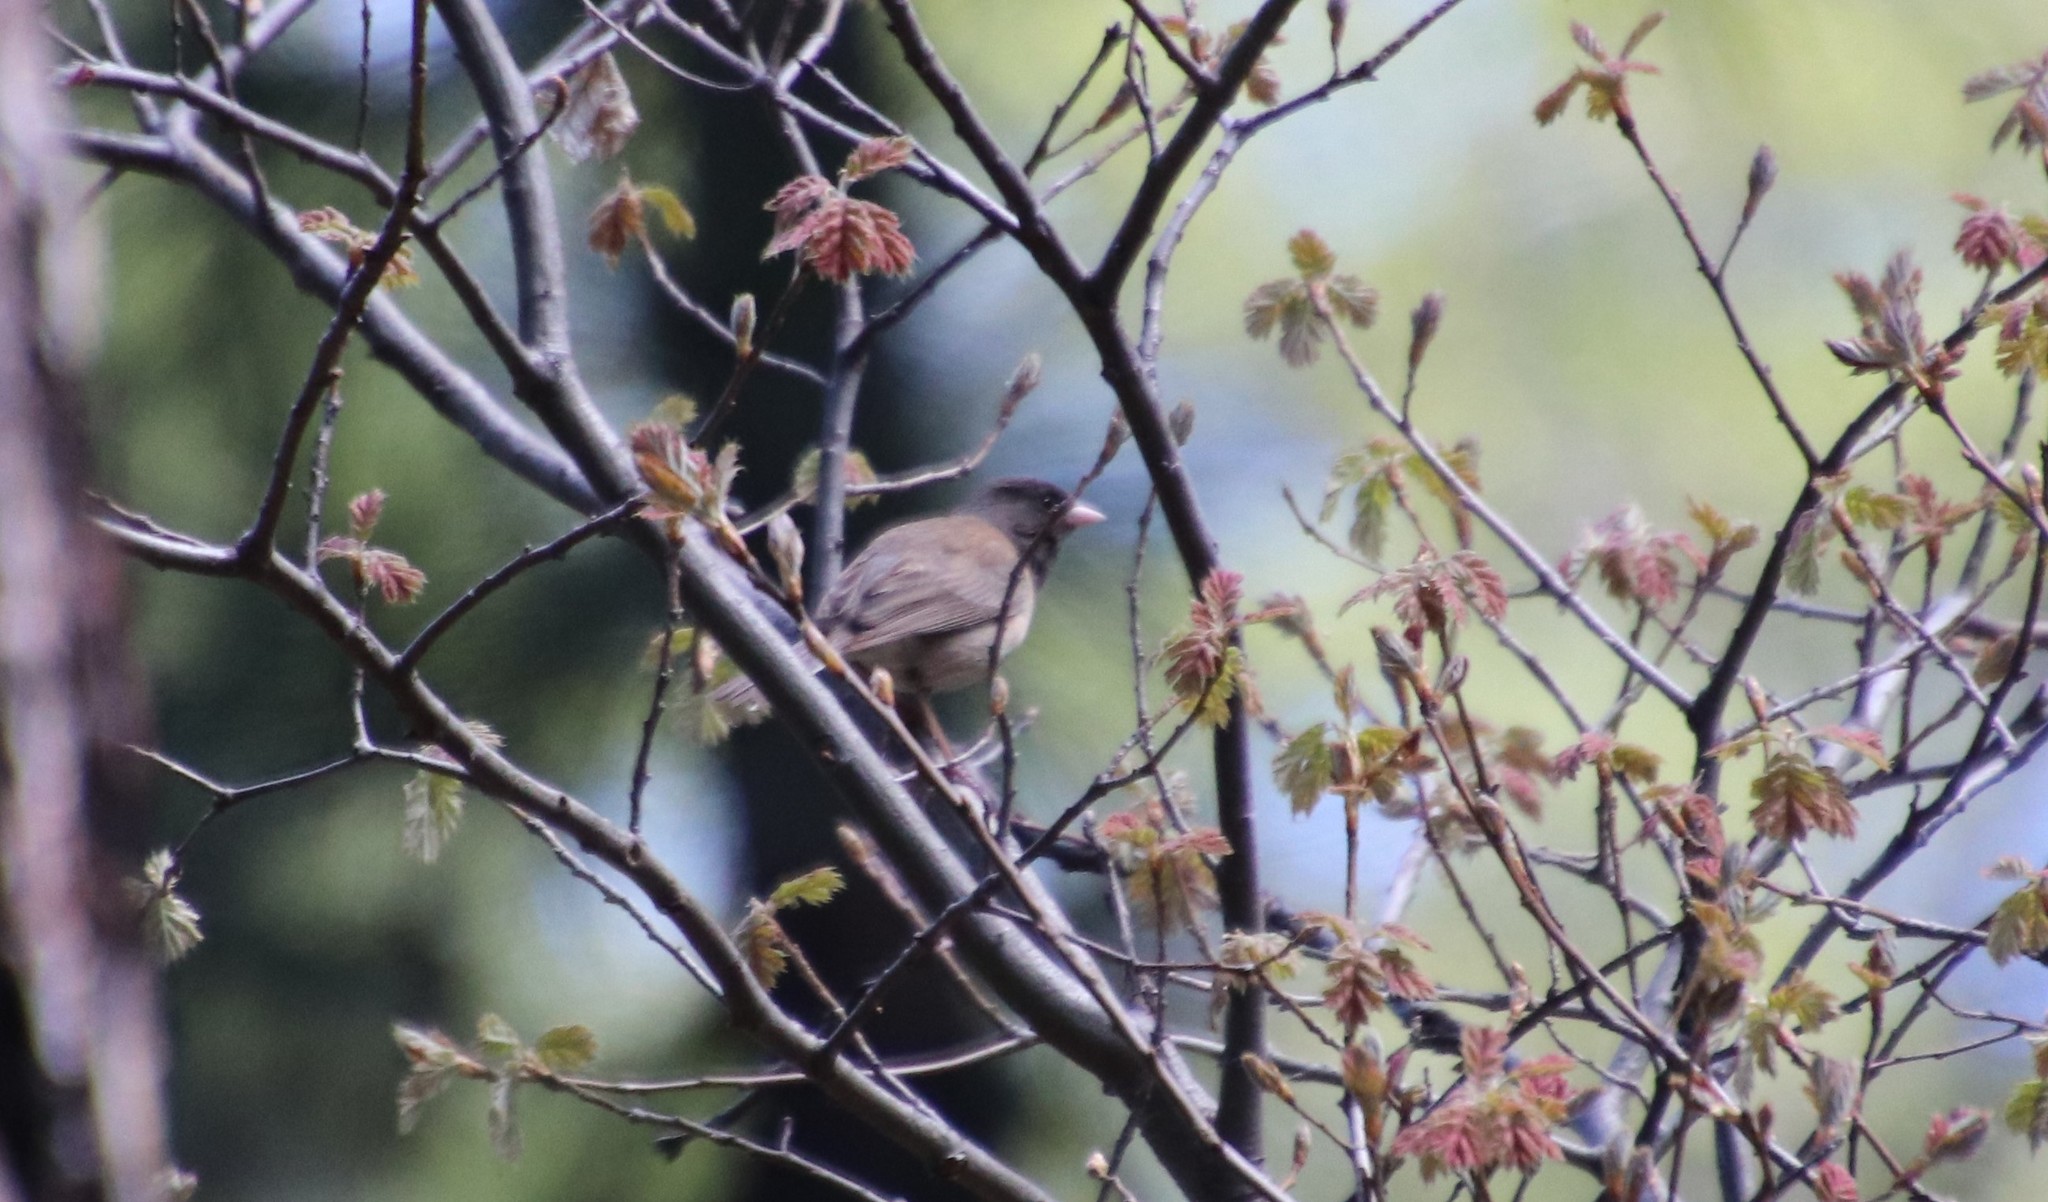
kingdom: Animalia
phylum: Chordata
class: Aves
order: Passeriformes
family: Passerellidae
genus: Junco
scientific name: Junco hyemalis
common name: Dark-eyed junco
